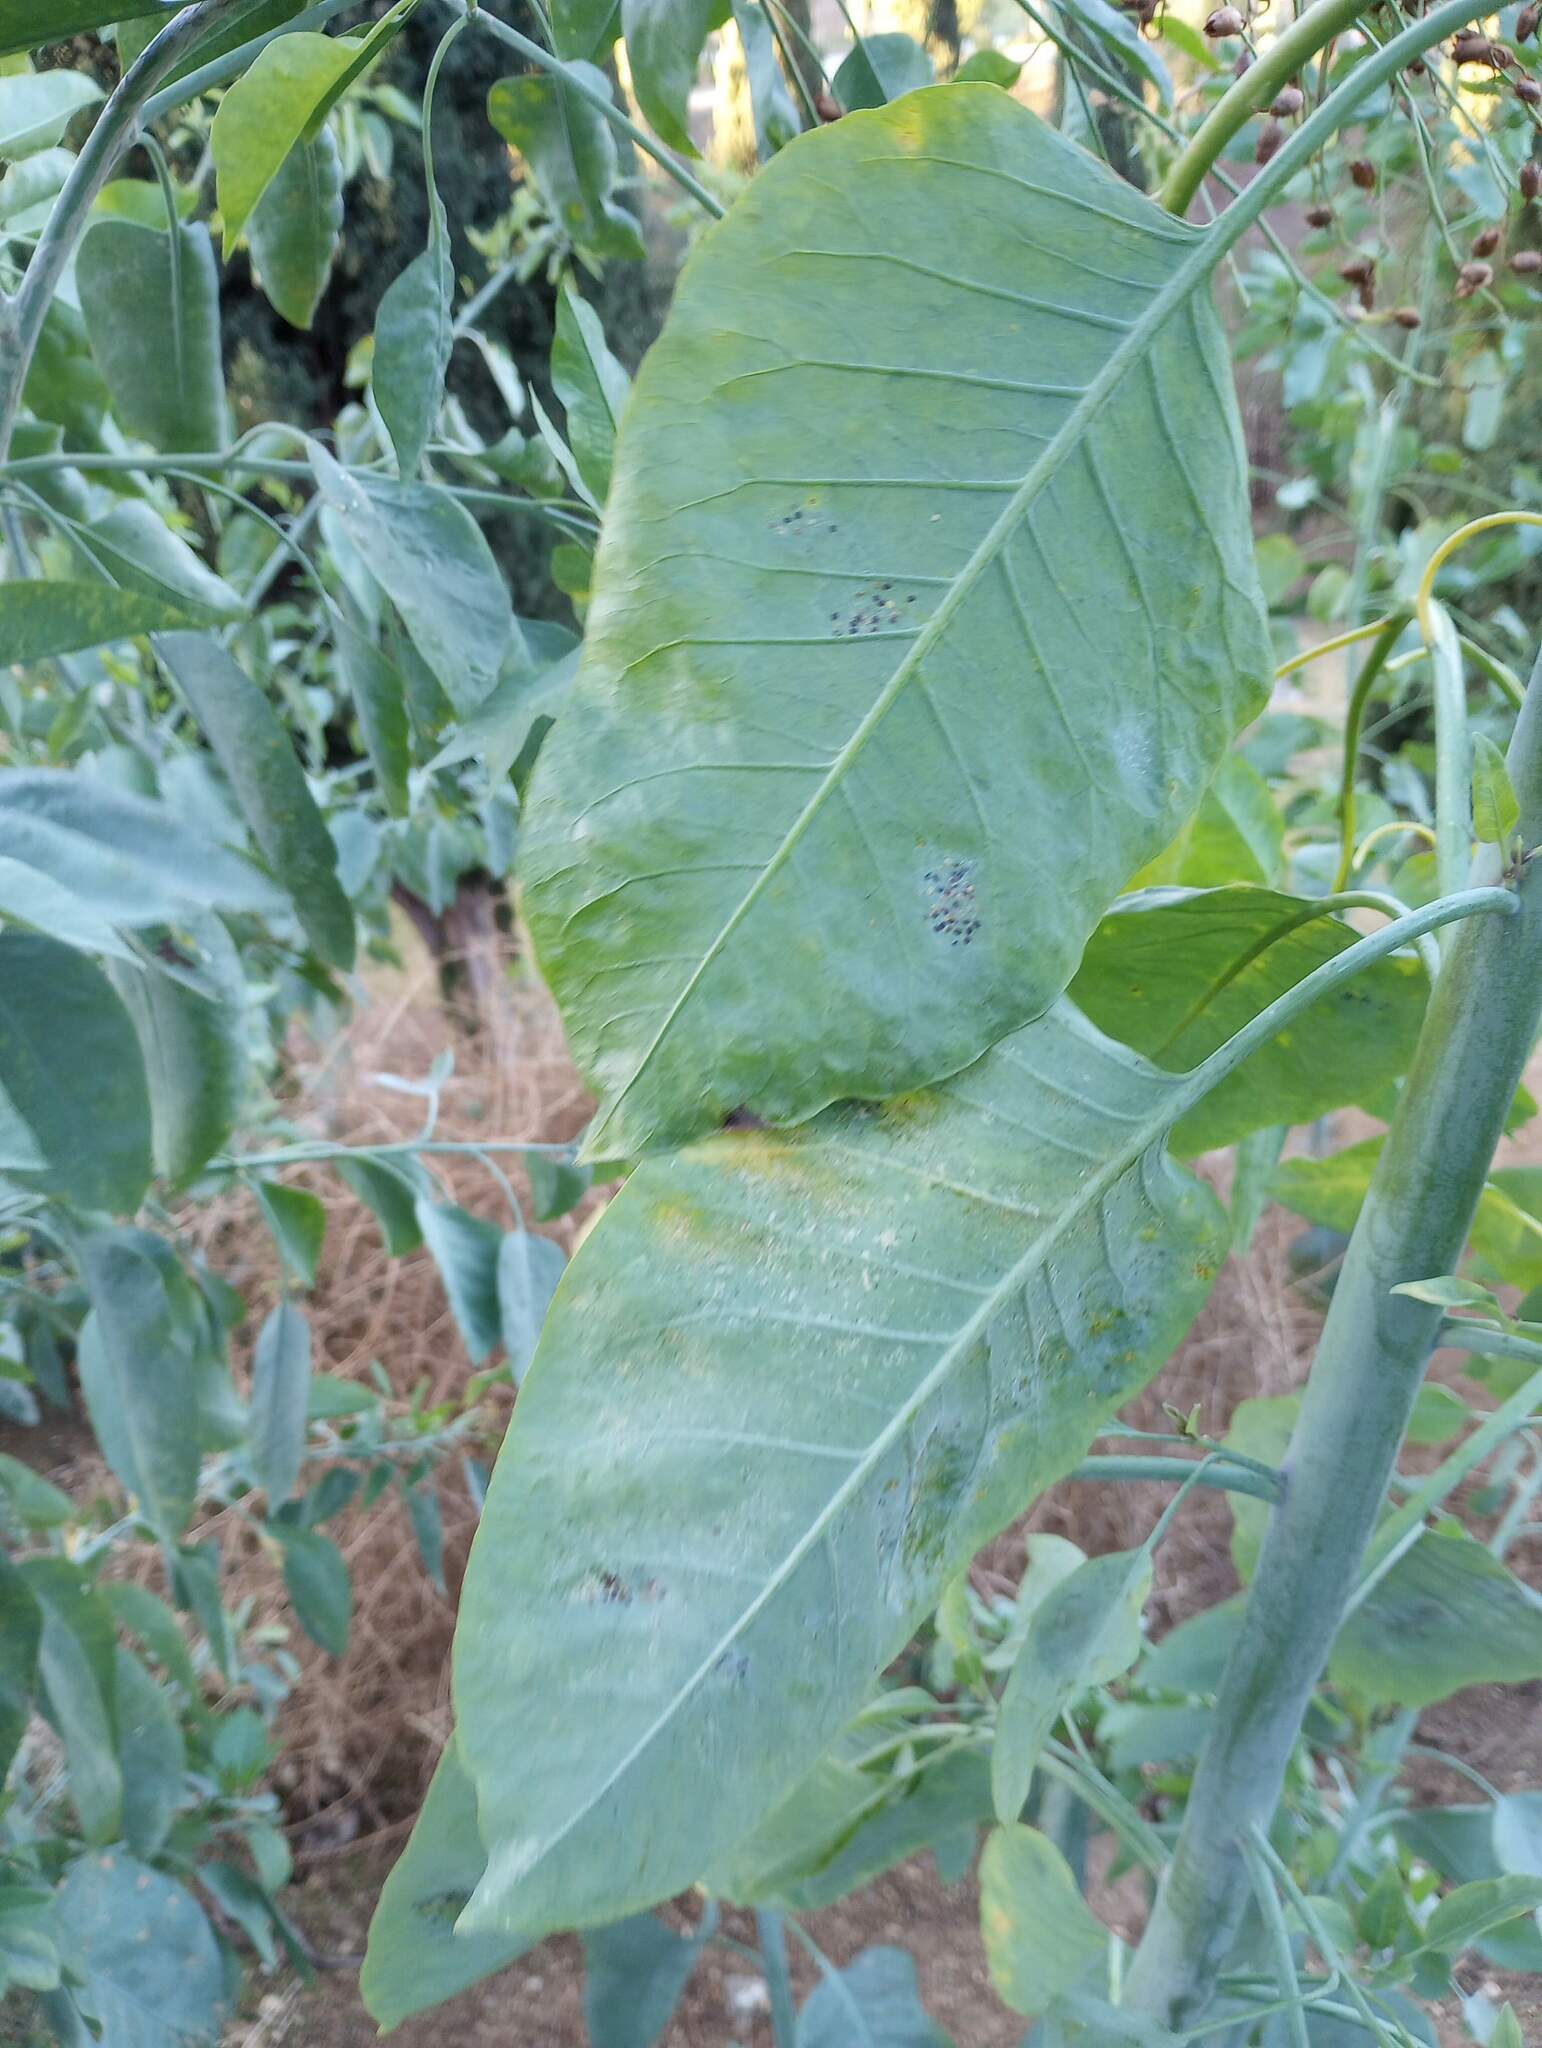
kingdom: Plantae
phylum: Tracheophyta
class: Magnoliopsida
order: Solanales
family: Solanaceae
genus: Nicotiana
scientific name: Nicotiana glauca
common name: Tree tobacco
